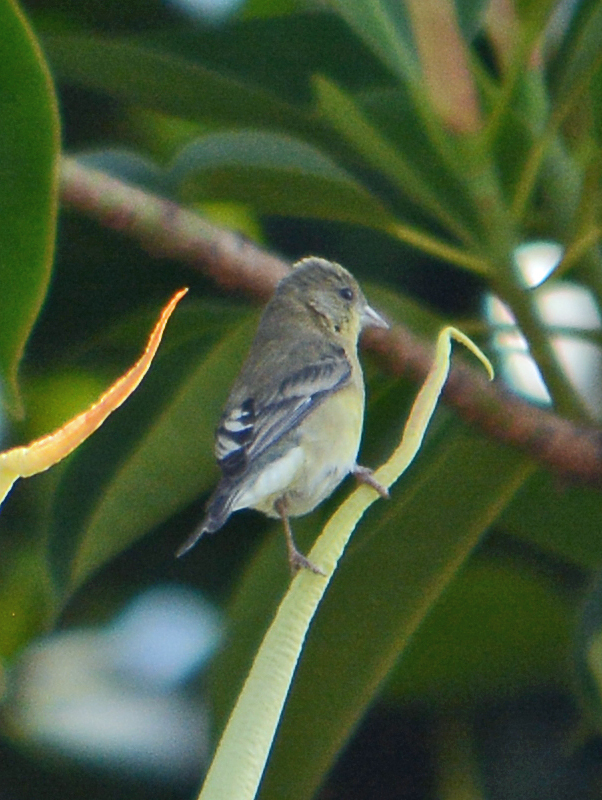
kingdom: Animalia
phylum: Chordata
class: Aves
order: Passeriformes
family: Fringillidae
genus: Spinus
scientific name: Spinus psaltria
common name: Lesser goldfinch
